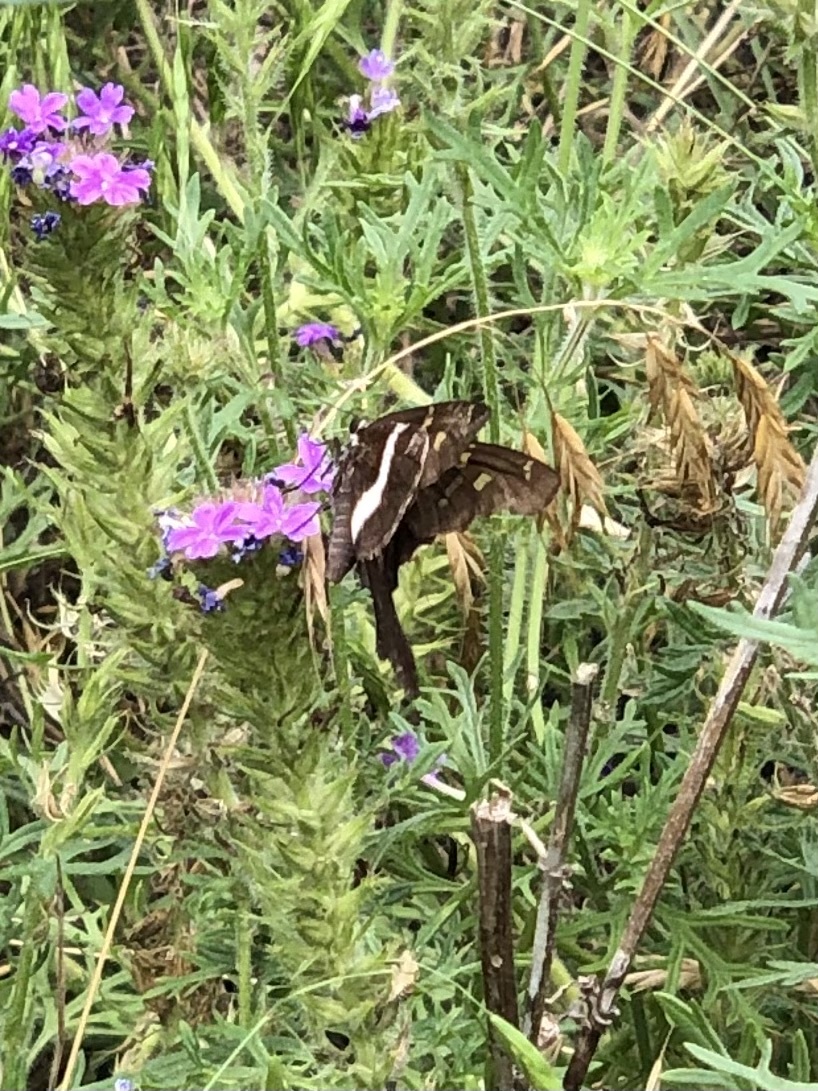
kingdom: Animalia
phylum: Arthropoda
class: Insecta
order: Lepidoptera
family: Hesperiidae
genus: Chioides
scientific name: Chioides catillus
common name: Silverbanded skipper
